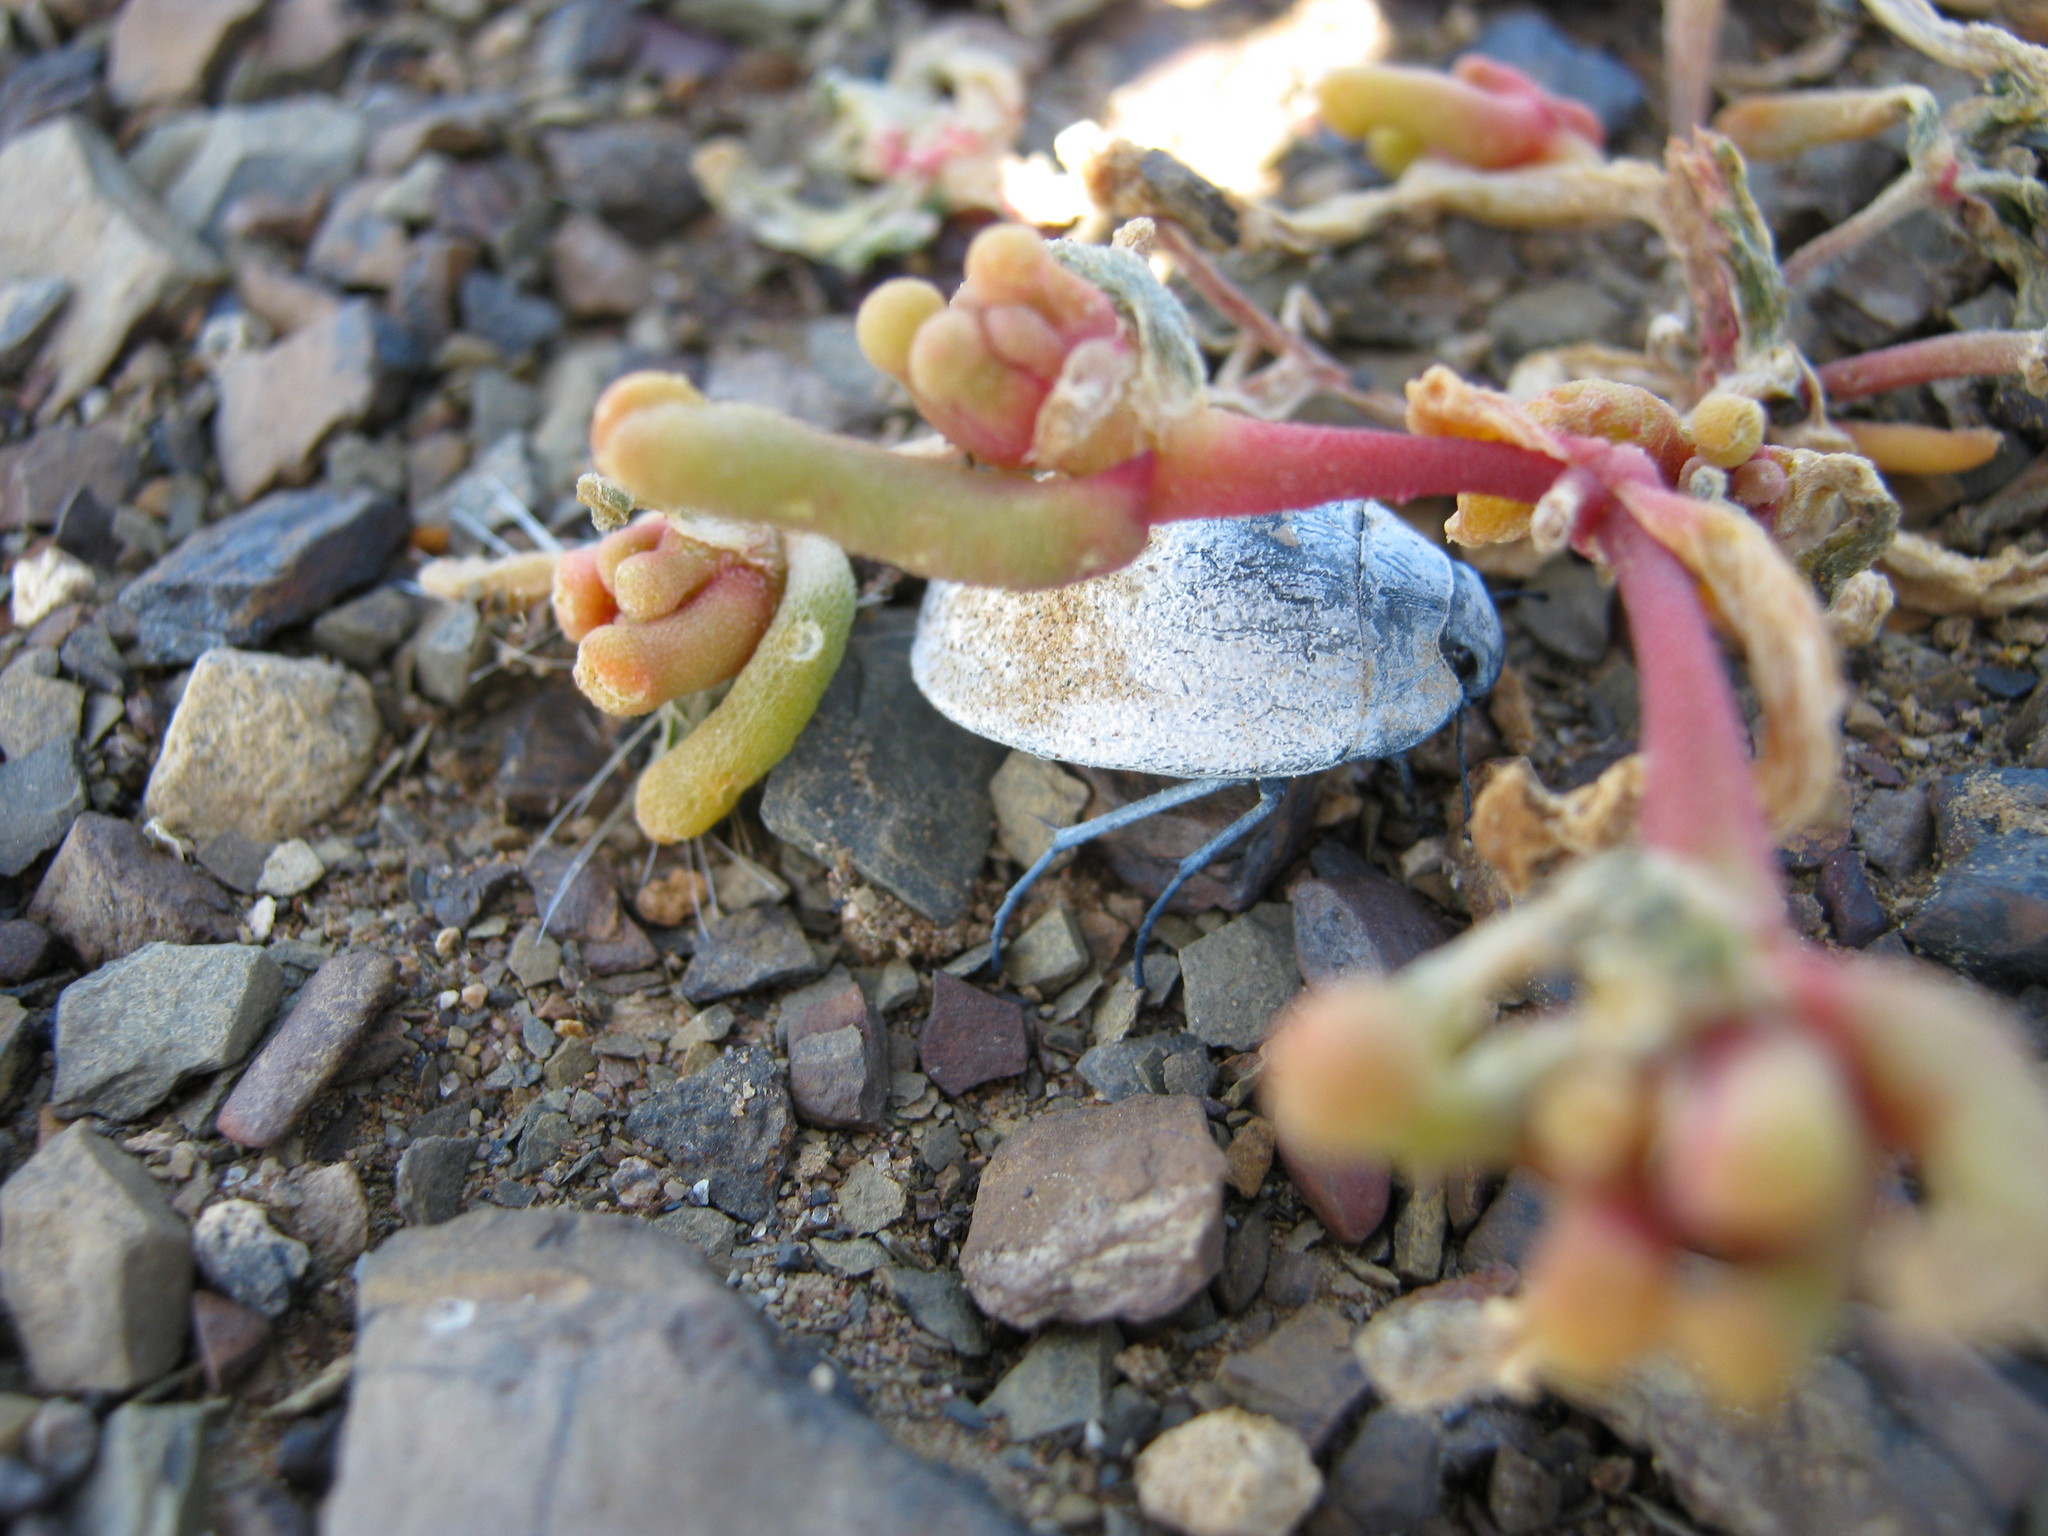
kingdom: Animalia
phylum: Arthropoda
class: Insecta
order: Coleoptera
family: Tenebrionidae
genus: Zophosis
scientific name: Zophosis
